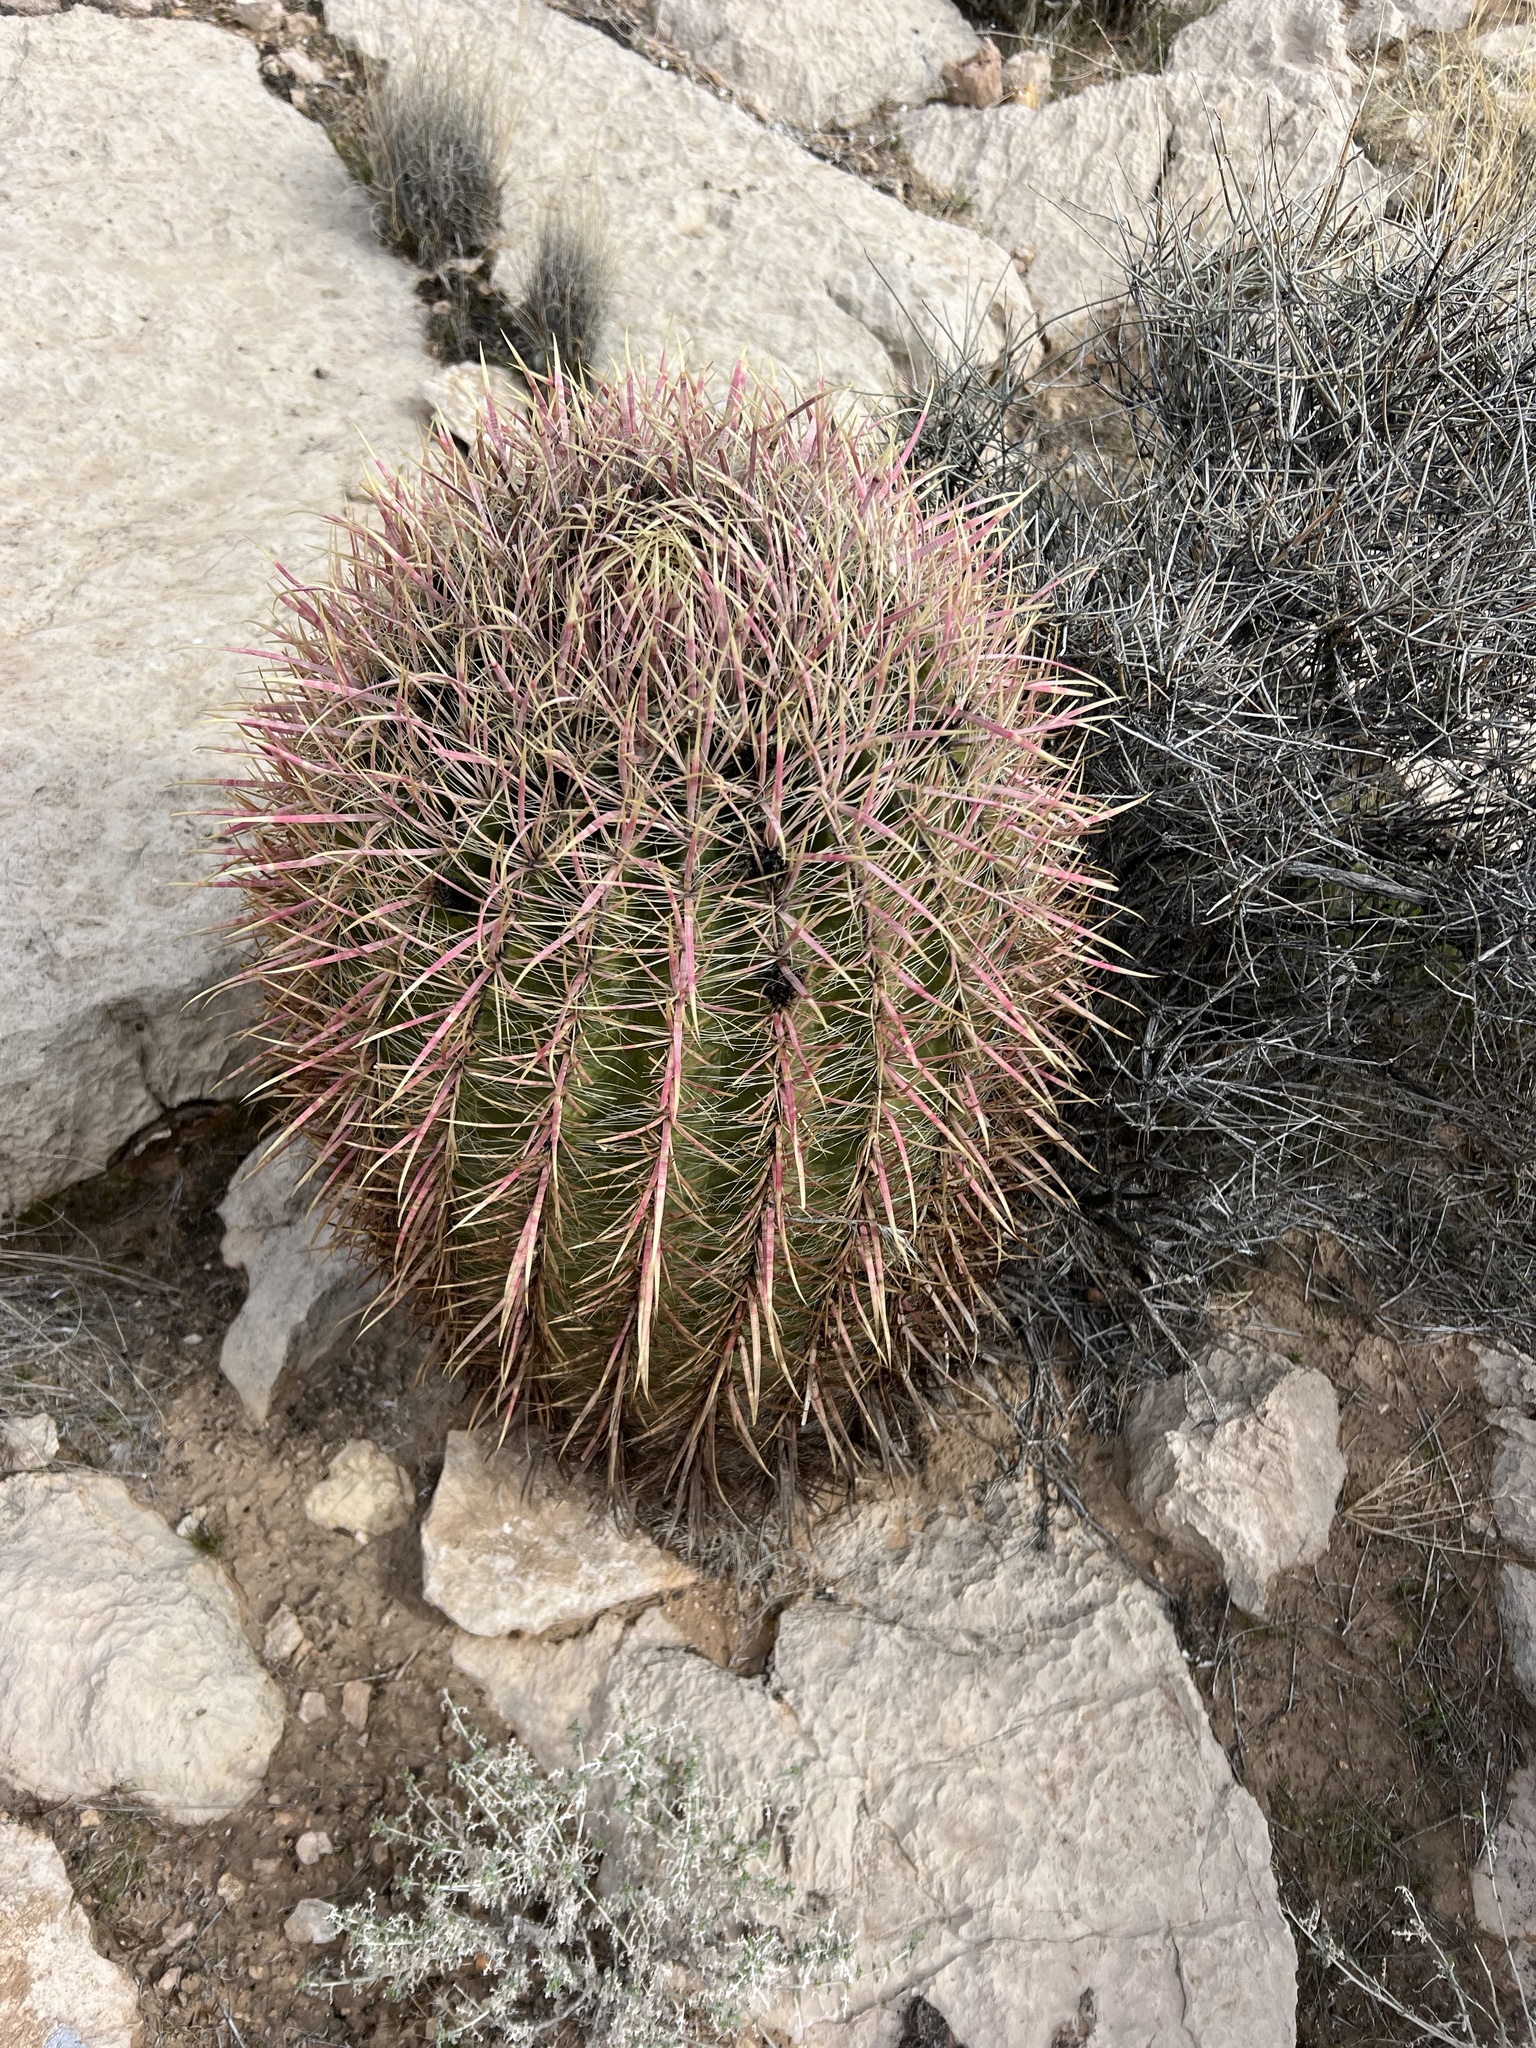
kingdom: Plantae
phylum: Tracheophyta
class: Magnoliopsida
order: Caryophyllales
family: Cactaceae
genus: Ferocactus
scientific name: Ferocactus cylindraceus
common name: California barrel cactus
